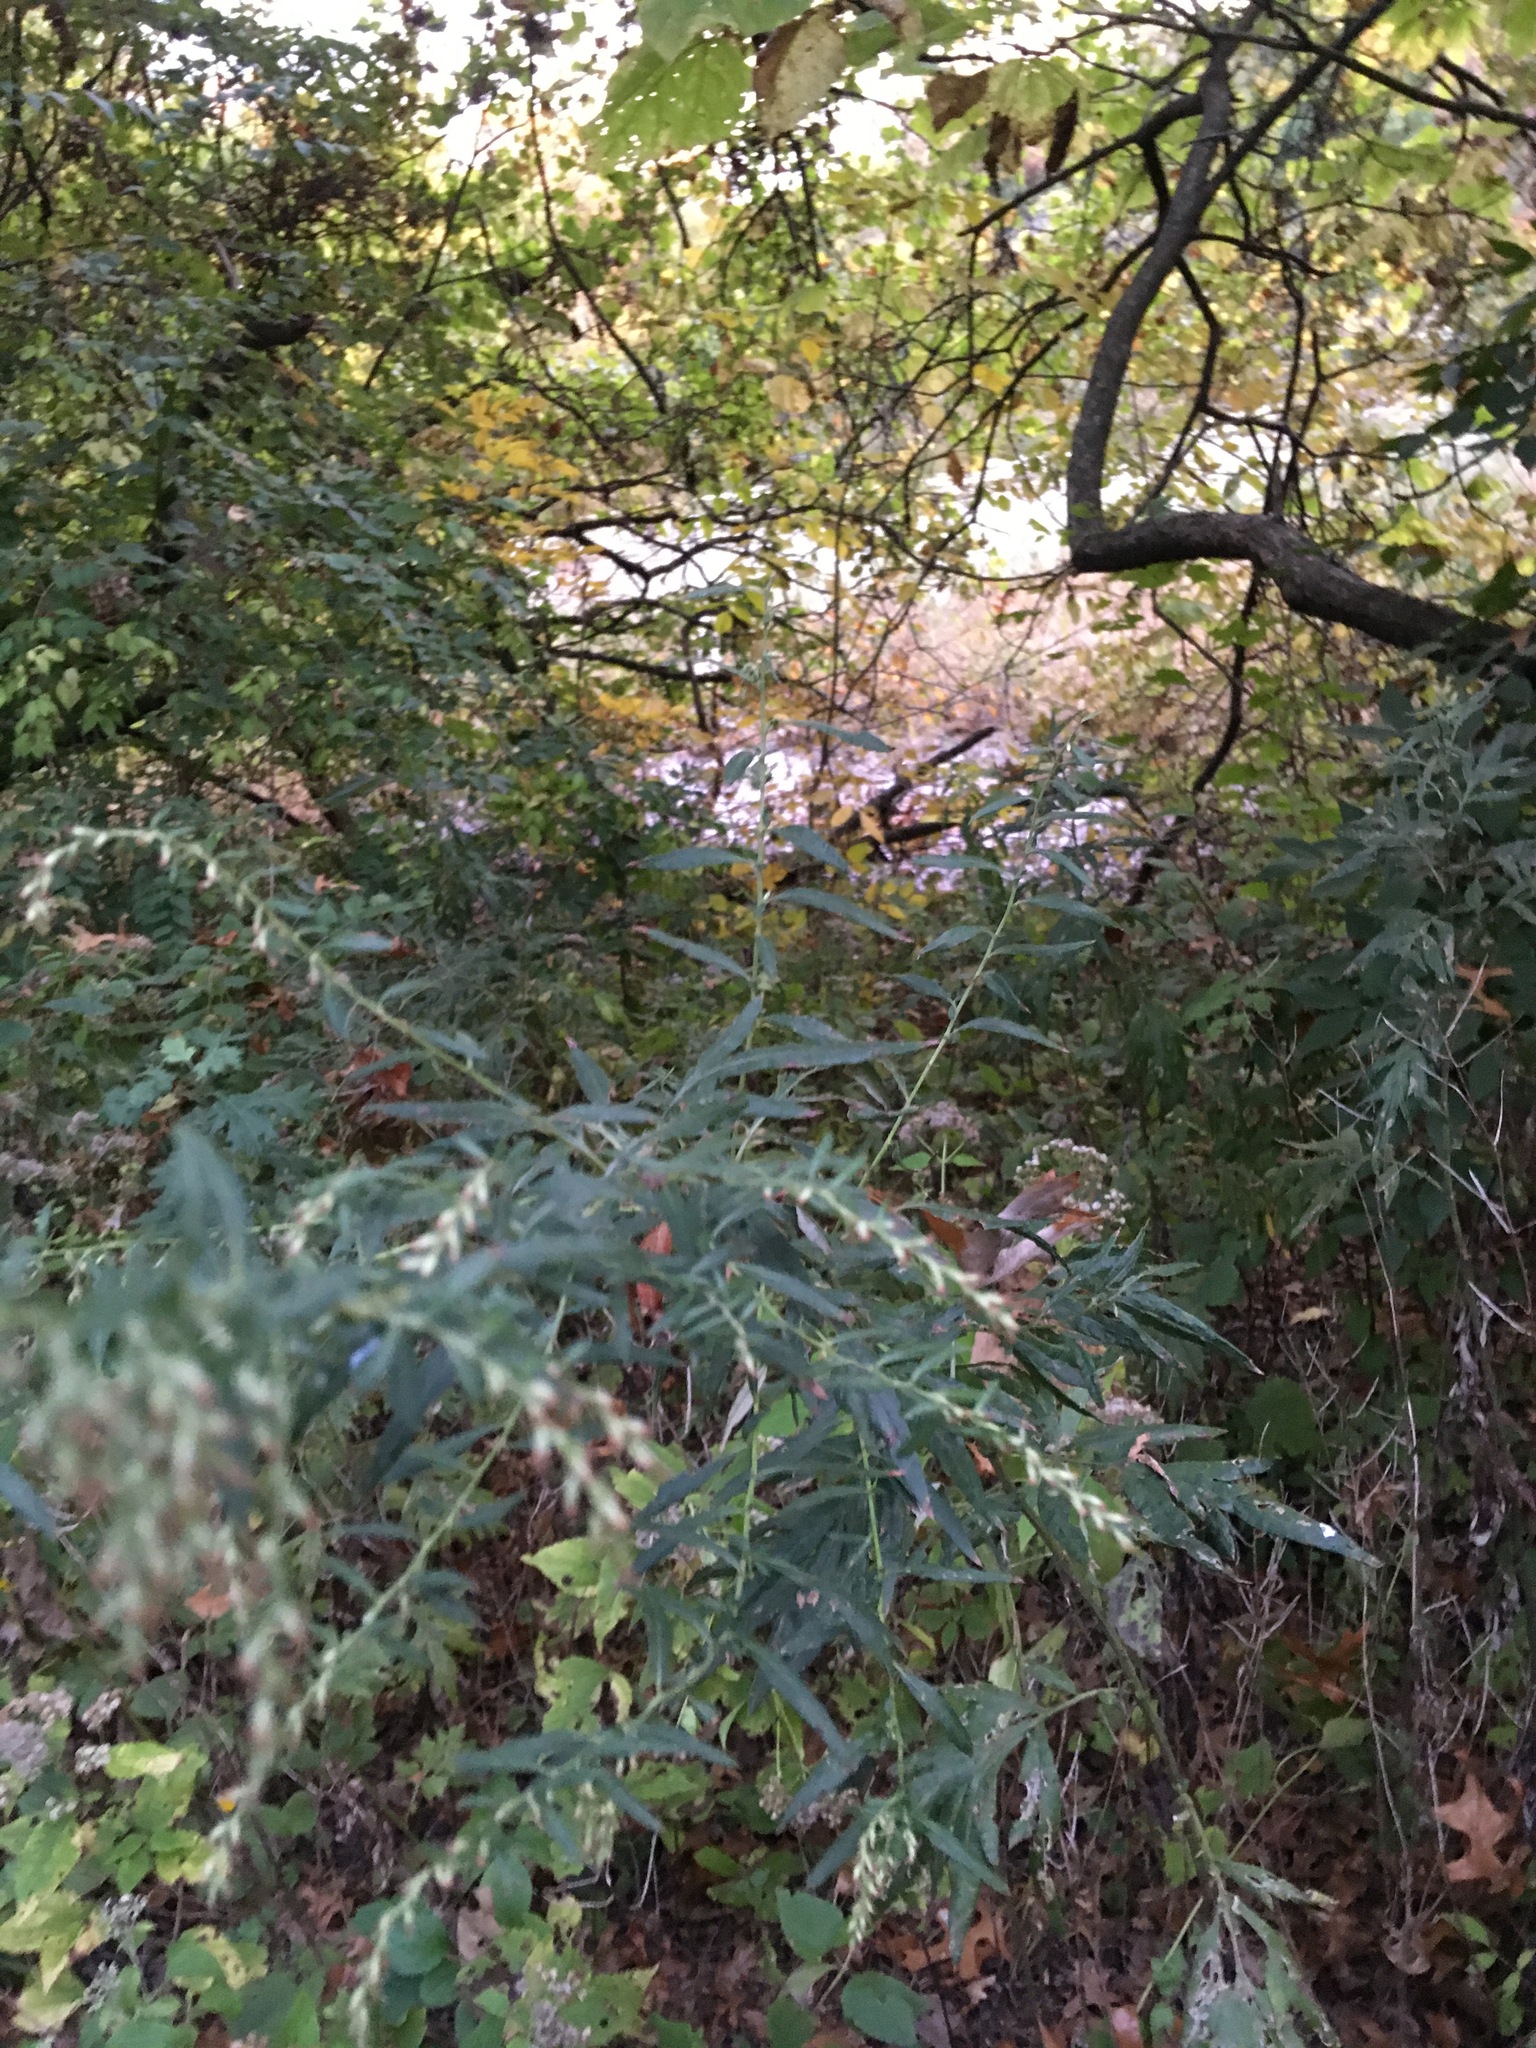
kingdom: Plantae
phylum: Tracheophyta
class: Magnoliopsida
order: Asterales
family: Asteraceae
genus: Artemisia
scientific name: Artemisia vulgaris
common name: Mugwort
